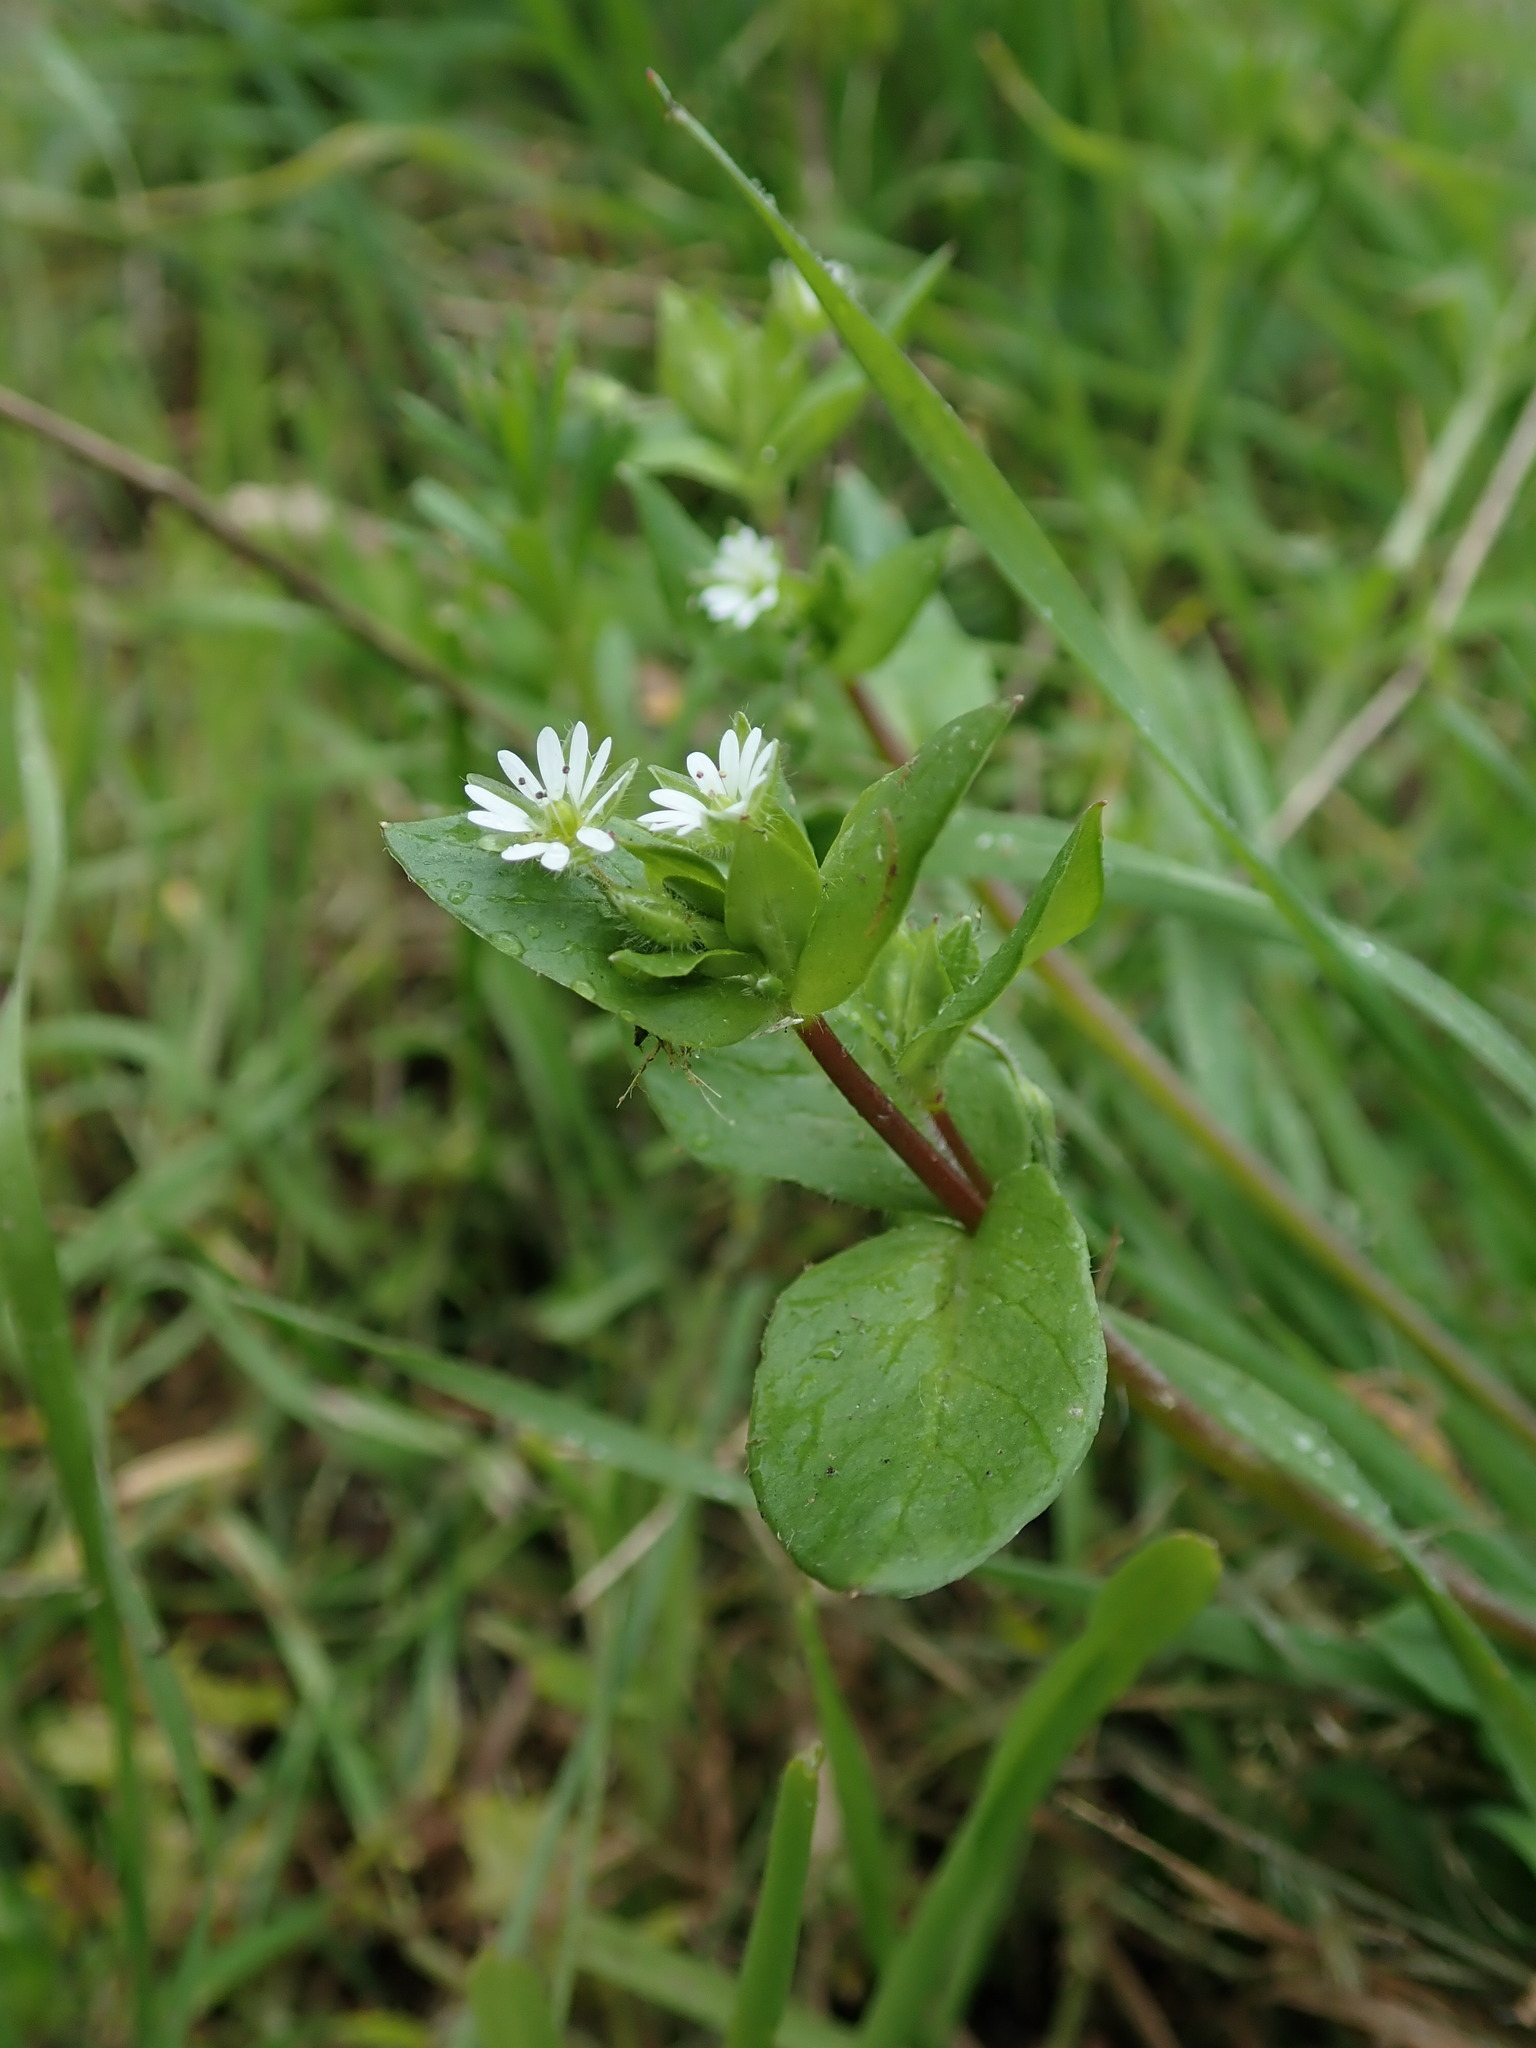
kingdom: Plantae
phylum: Tracheophyta
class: Magnoliopsida
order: Caryophyllales
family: Caryophyllaceae
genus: Stellaria
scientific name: Stellaria media
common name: Common chickweed
